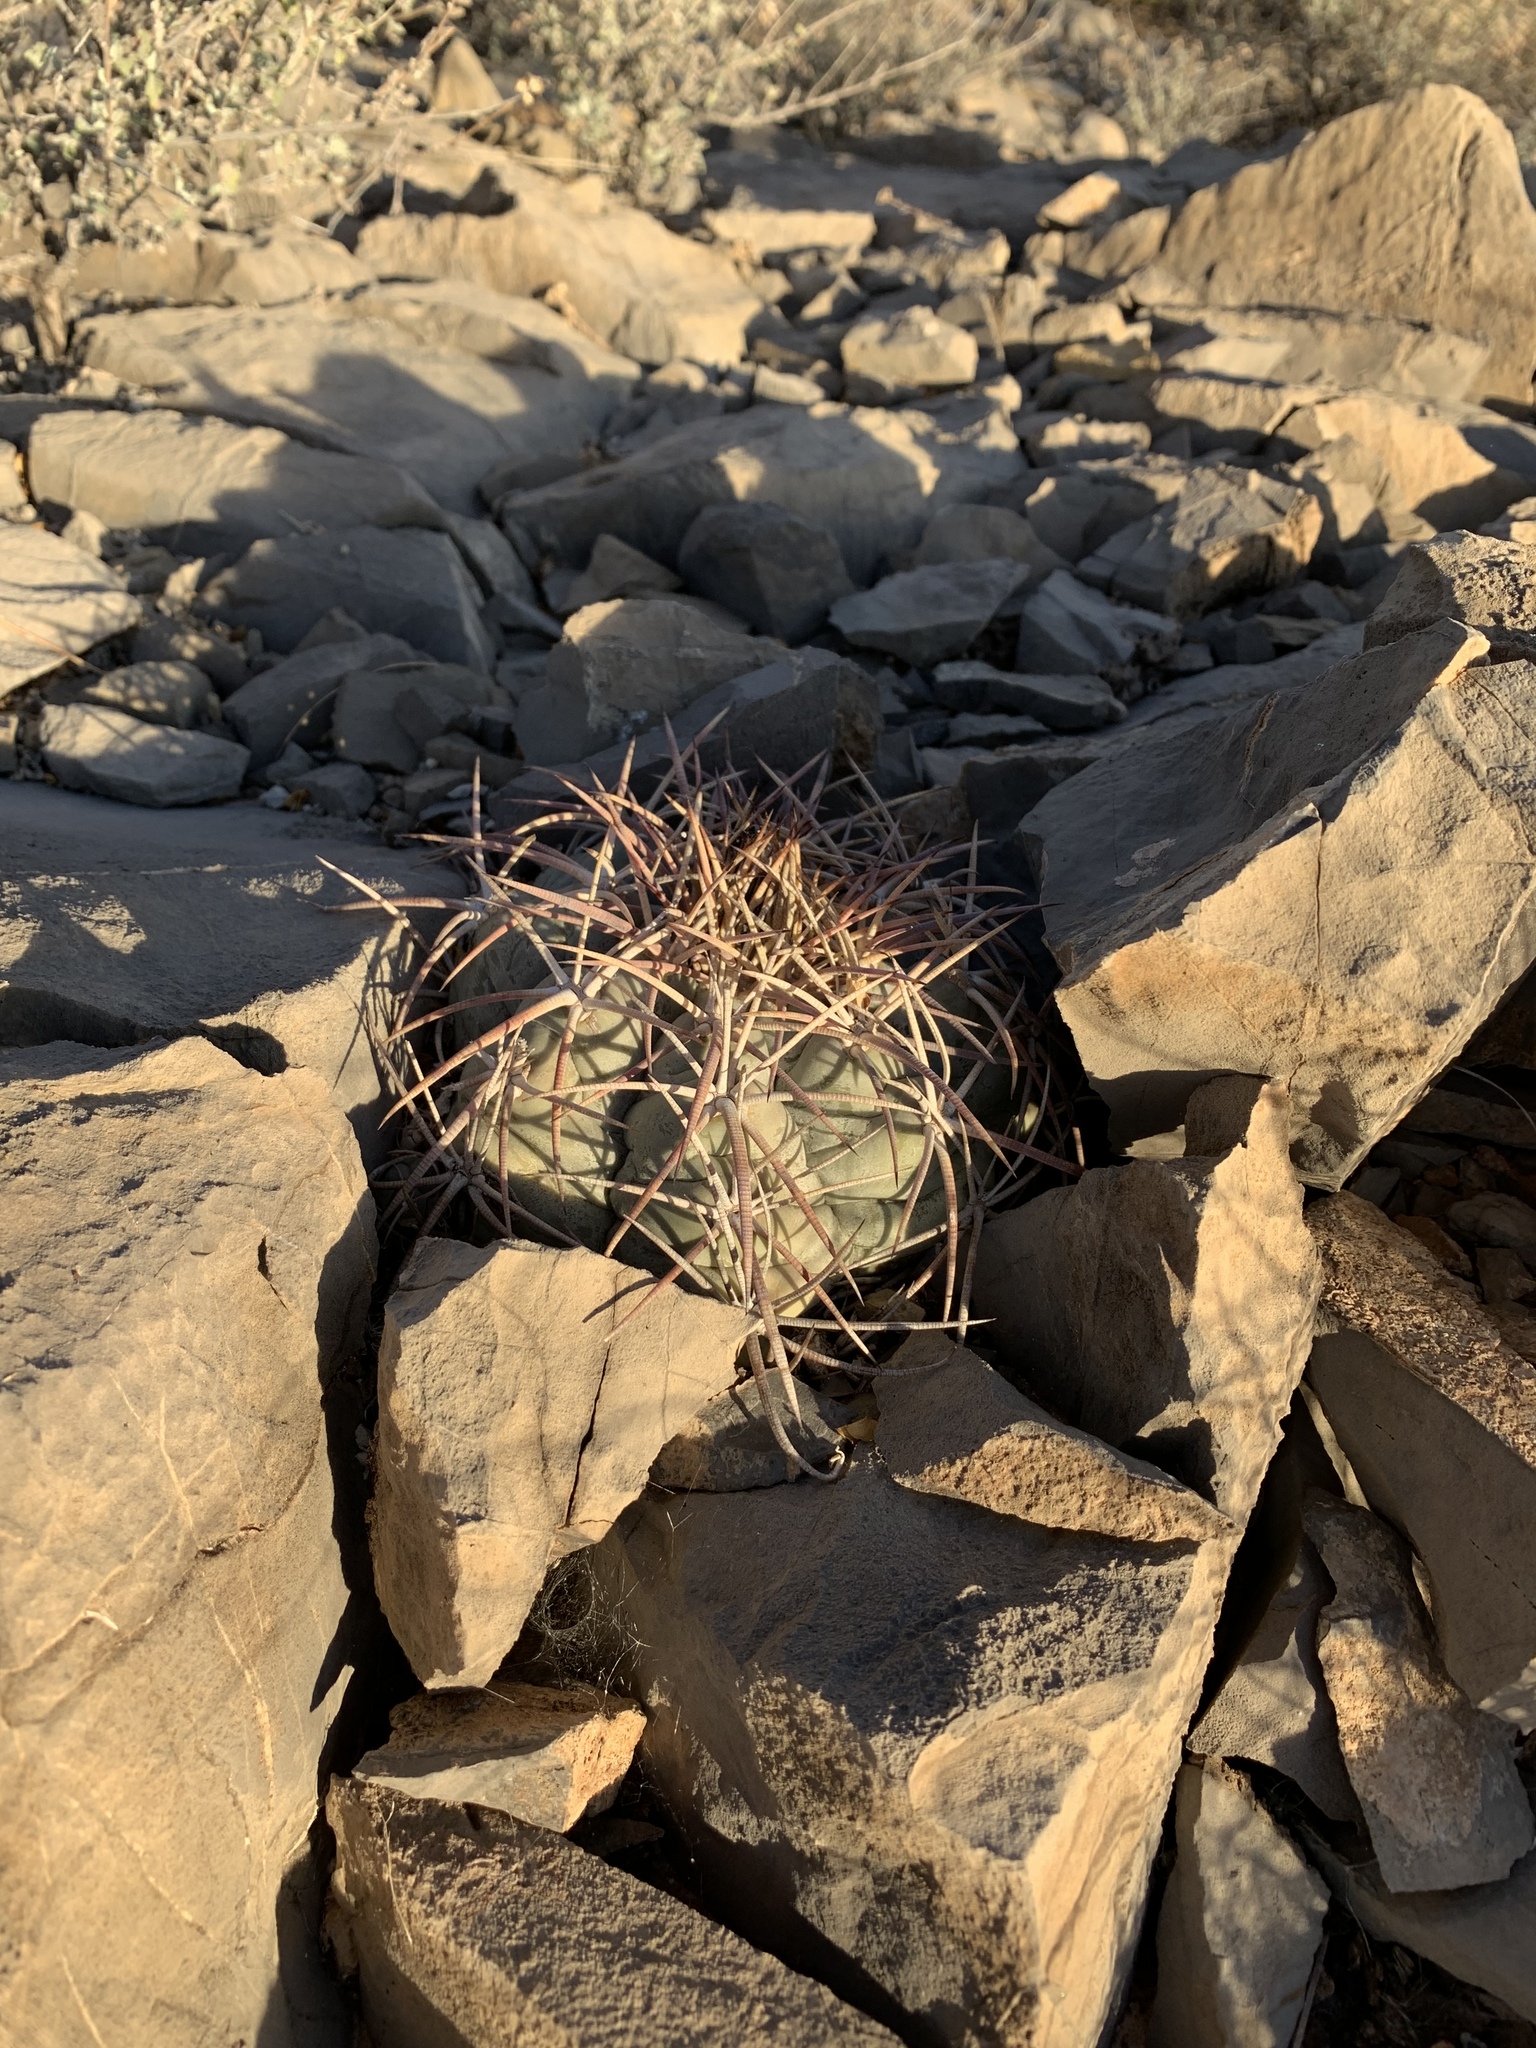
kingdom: Plantae
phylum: Tracheophyta
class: Magnoliopsida
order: Caryophyllales
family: Cactaceae
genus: Echinocactus
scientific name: Echinocactus horizonthalonius
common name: Devilshead
